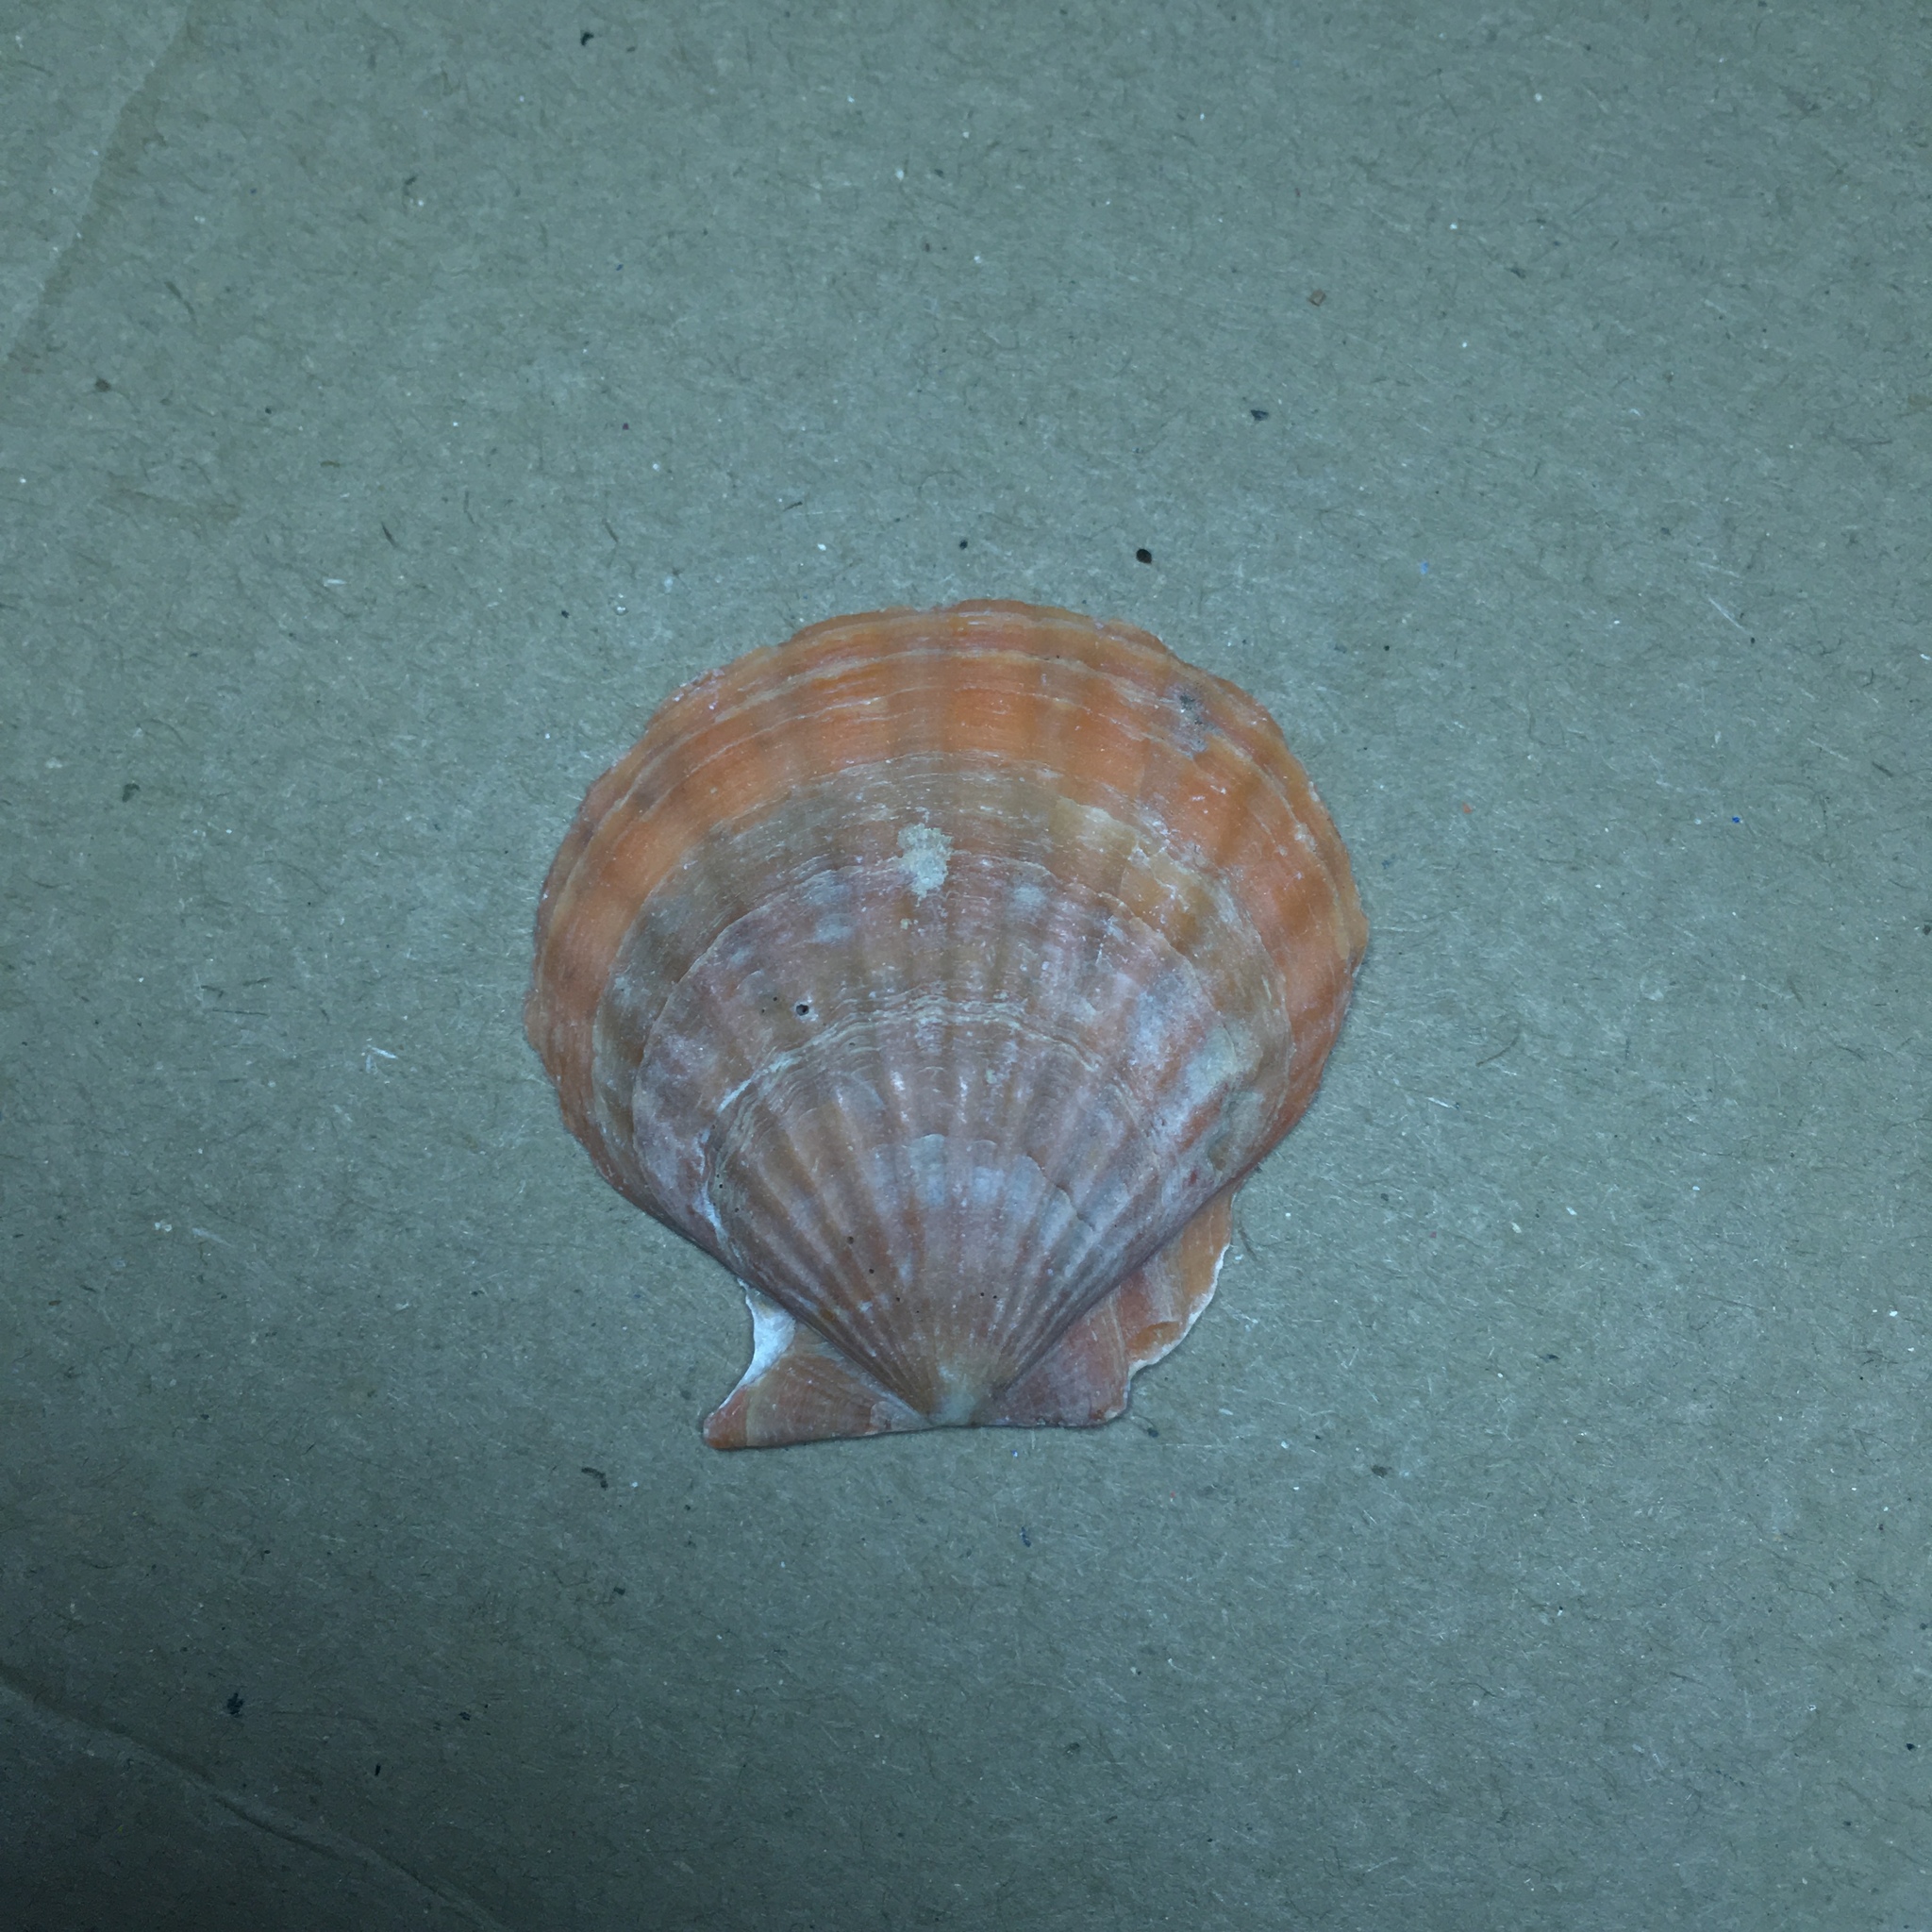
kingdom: Animalia
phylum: Mollusca
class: Bivalvia
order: Pectinida
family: Pectinidae
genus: Flexopecten
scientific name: Flexopecten glaber
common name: Smooth scallop
